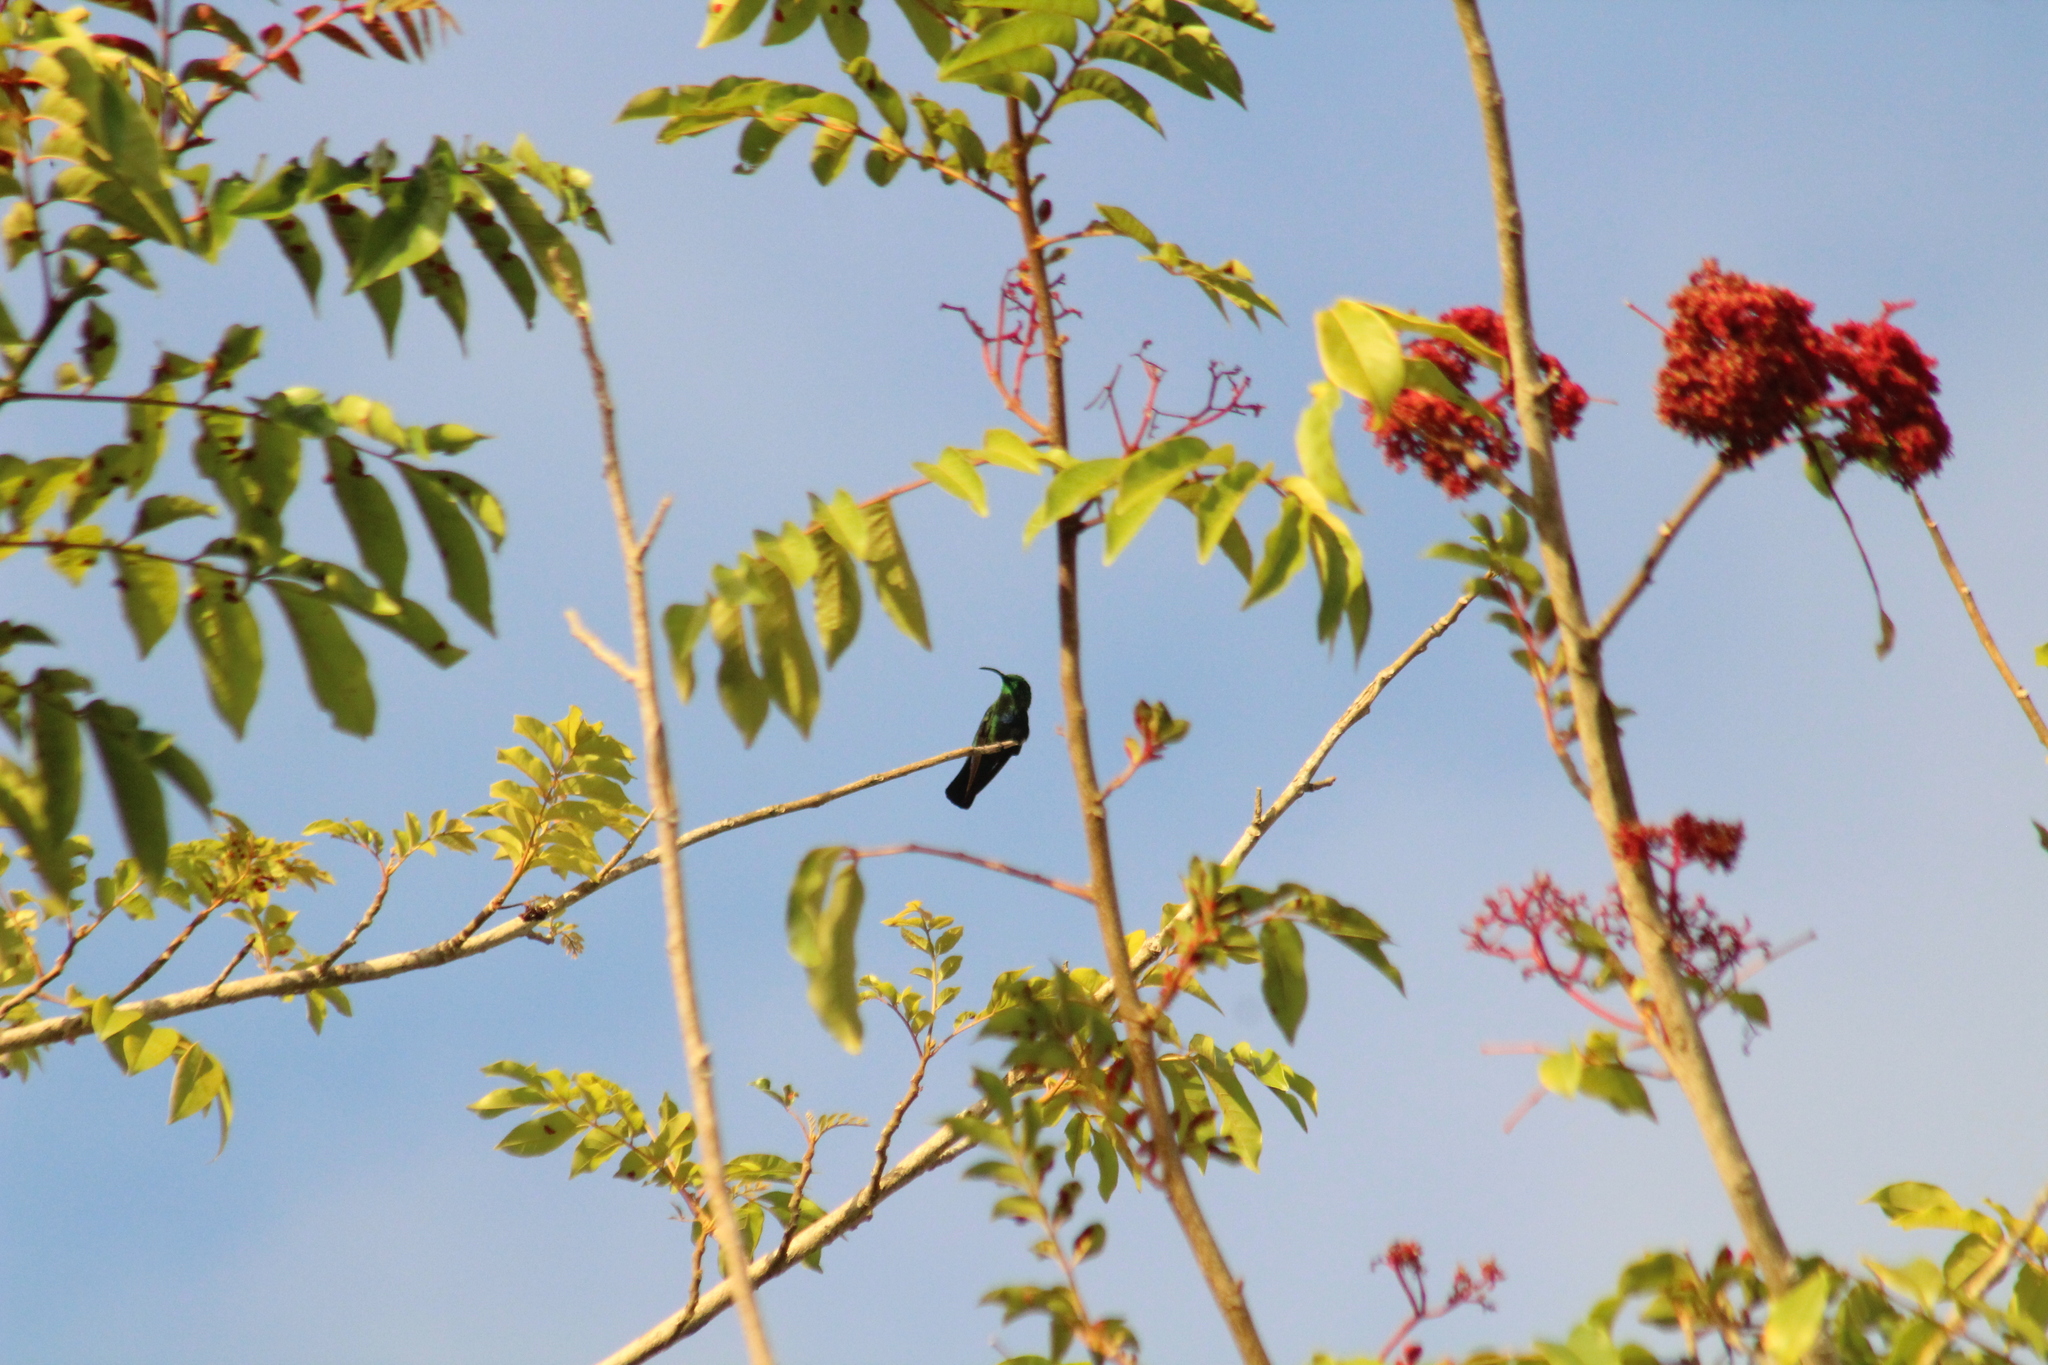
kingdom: Animalia
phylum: Chordata
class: Aves
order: Apodiformes
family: Trochilidae
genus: Eulampis
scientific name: Eulampis holosericeus
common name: Green-throated carib
